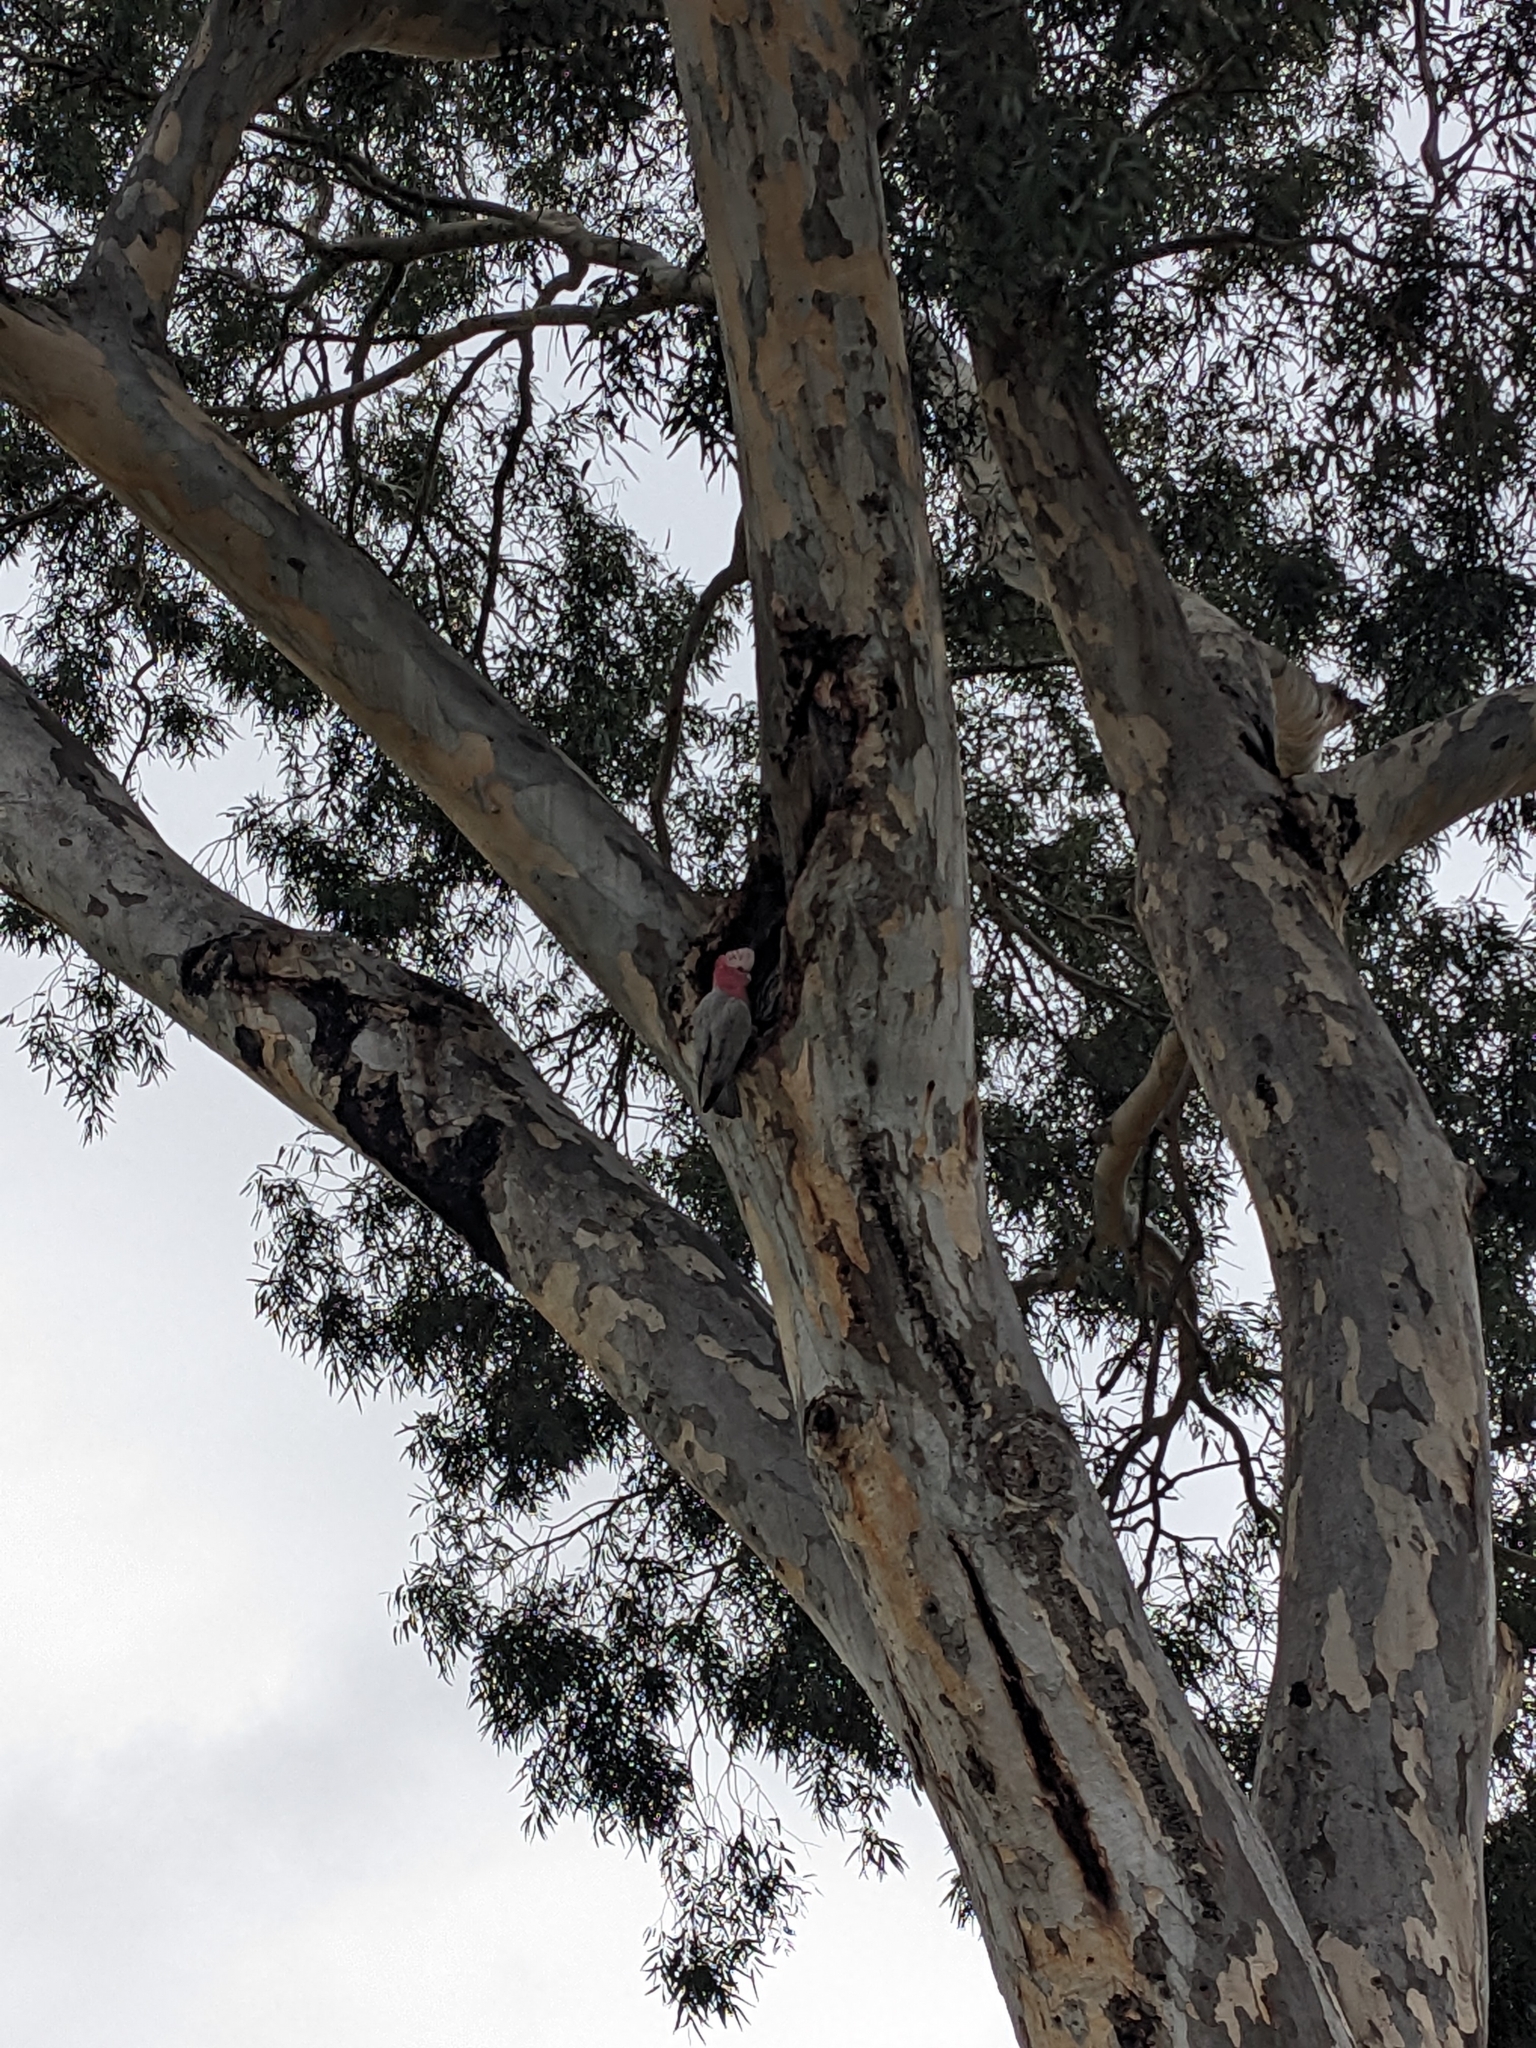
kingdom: Animalia
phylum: Chordata
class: Aves
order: Psittaciformes
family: Psittacidae
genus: Eolophus
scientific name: Eolophus roseicapilla
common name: Galah
